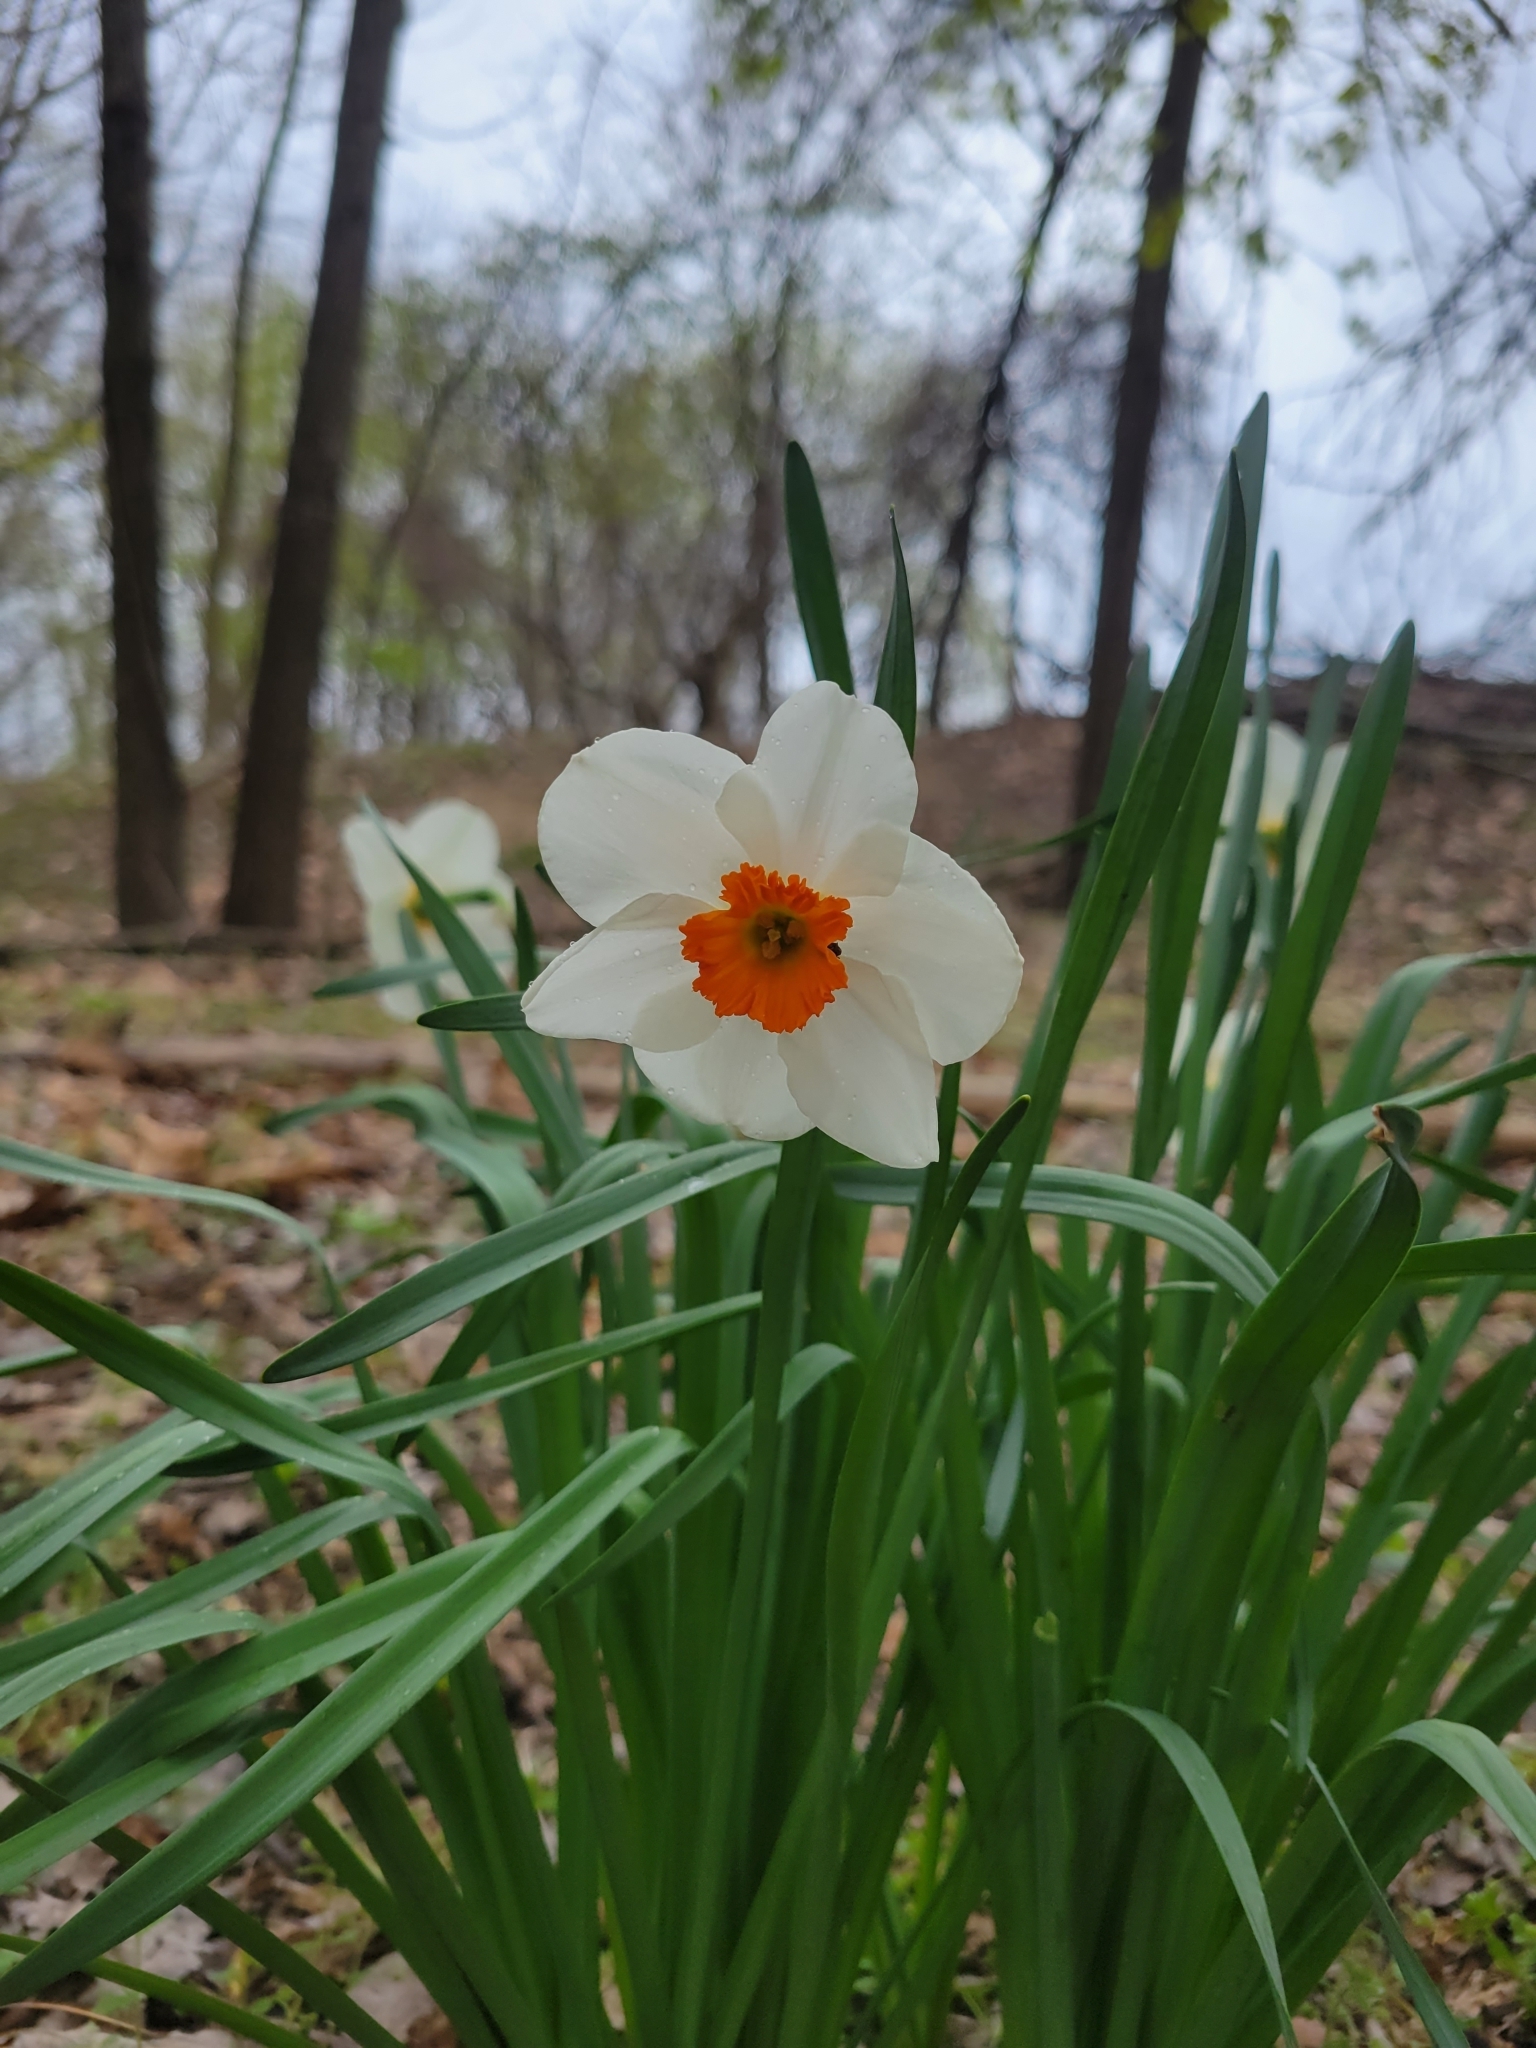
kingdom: Plantae
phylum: Tracheophyta
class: Liliopsida
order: Asparagales
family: Amaryllidaceae
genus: Narcissus
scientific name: Narcissus
